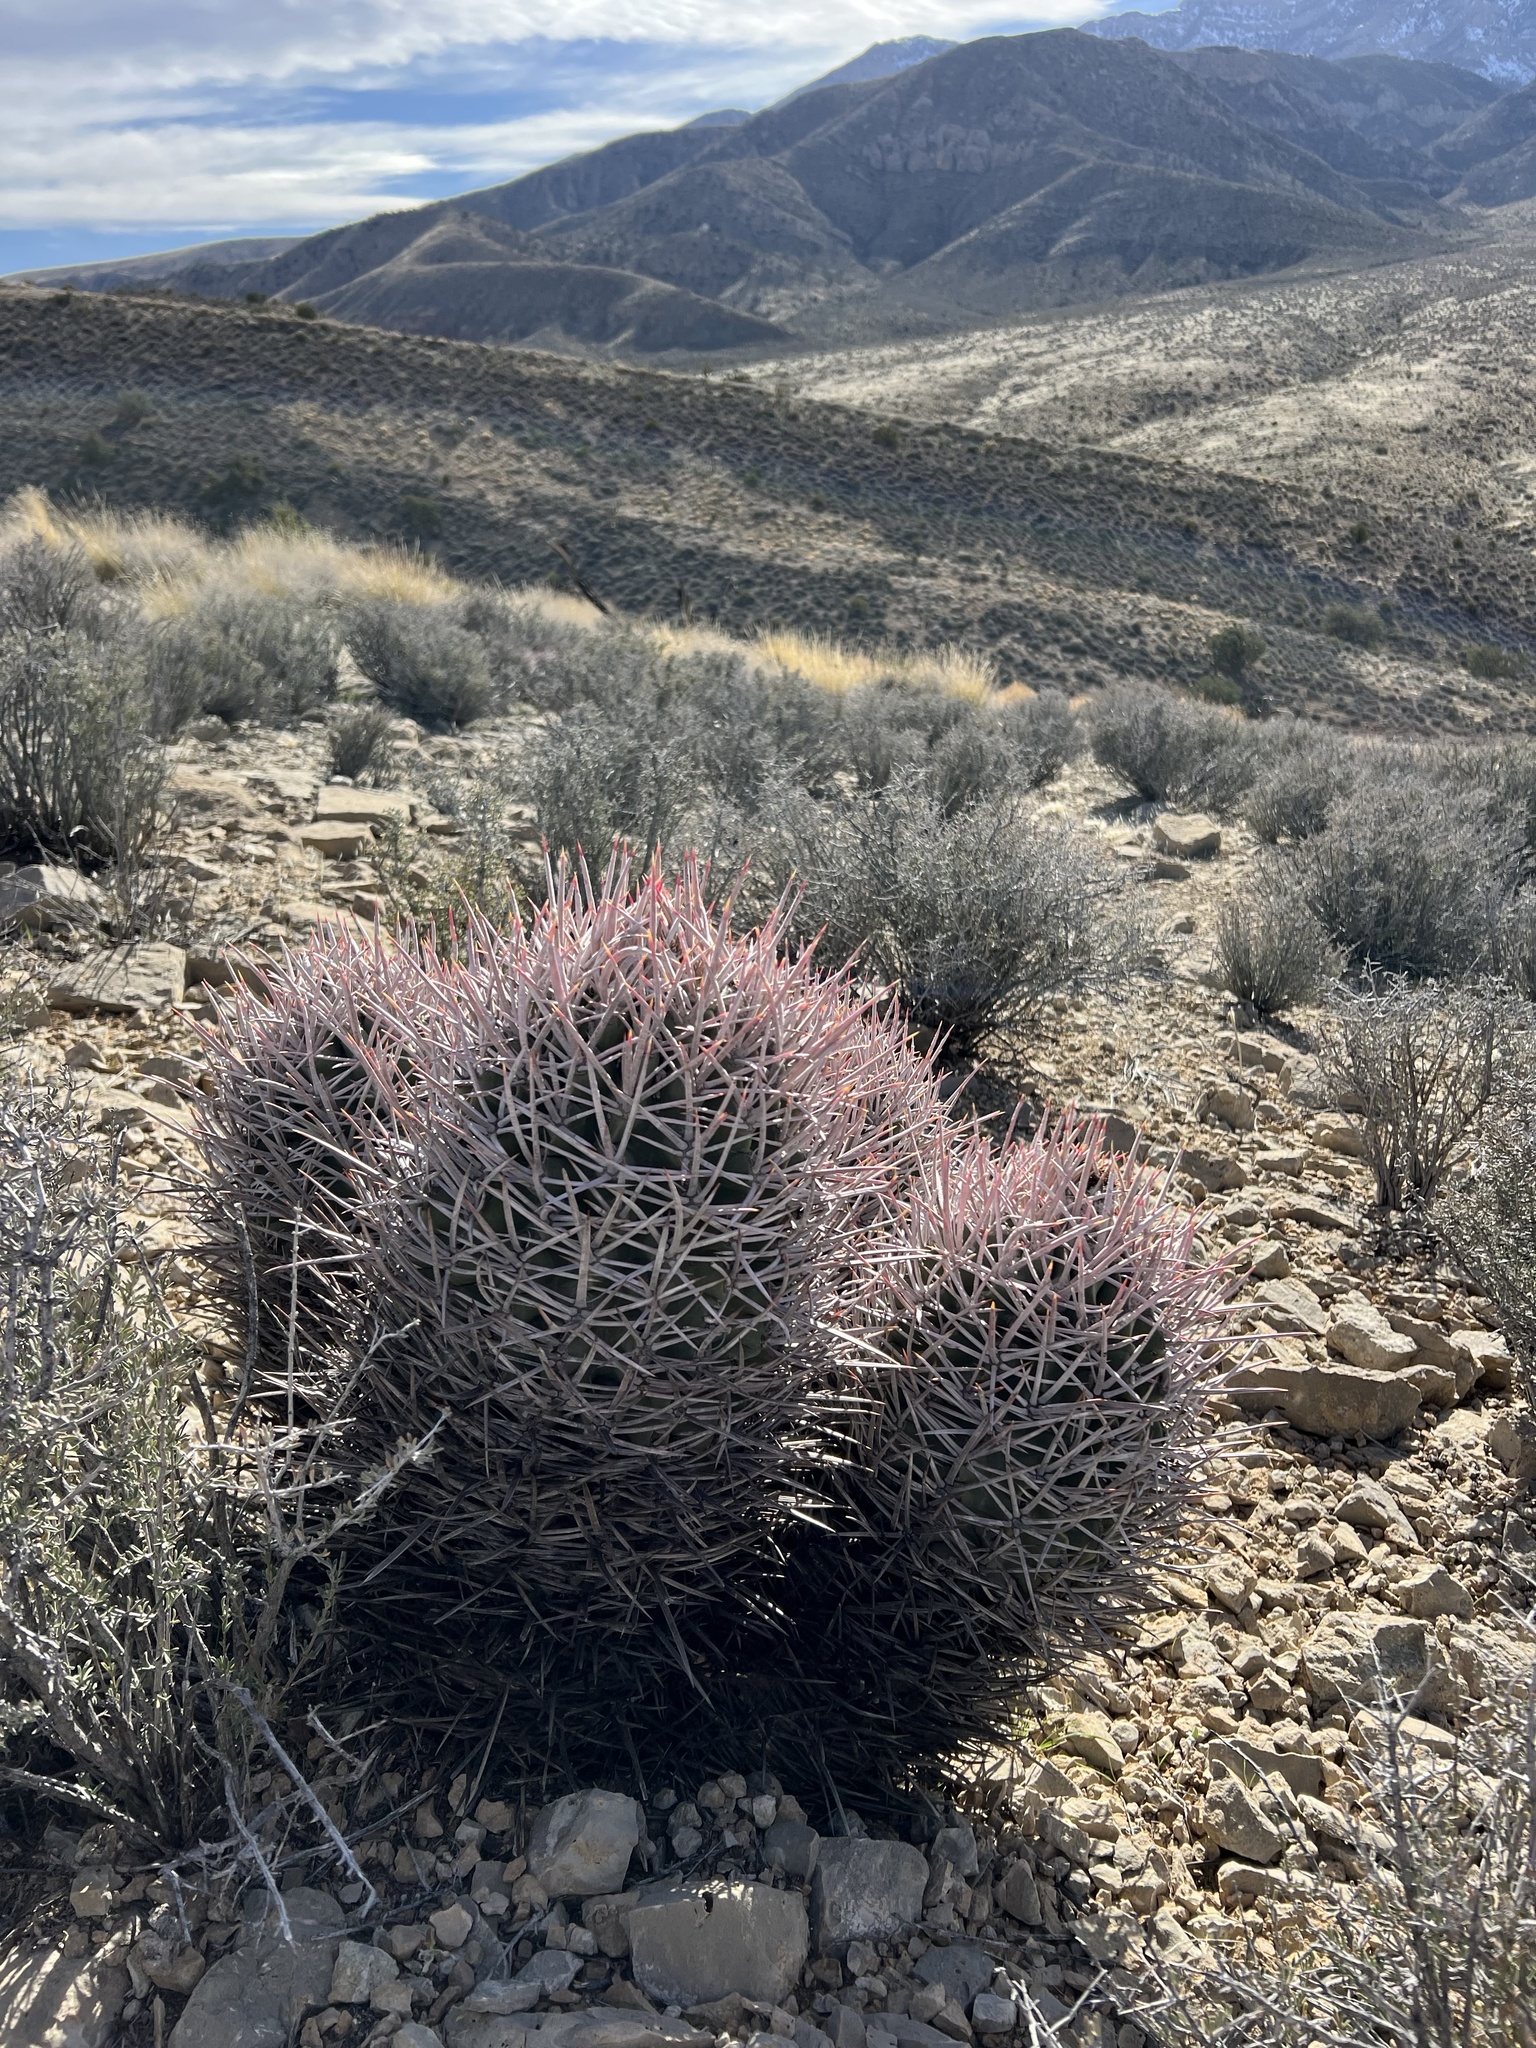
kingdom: Plantae
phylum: Tracheophyta
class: Magnoliopsida
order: Caryophyllales
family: Cactaceae
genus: Echinocactus
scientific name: Echinocactus polycephalus
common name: Cottontop cactus
